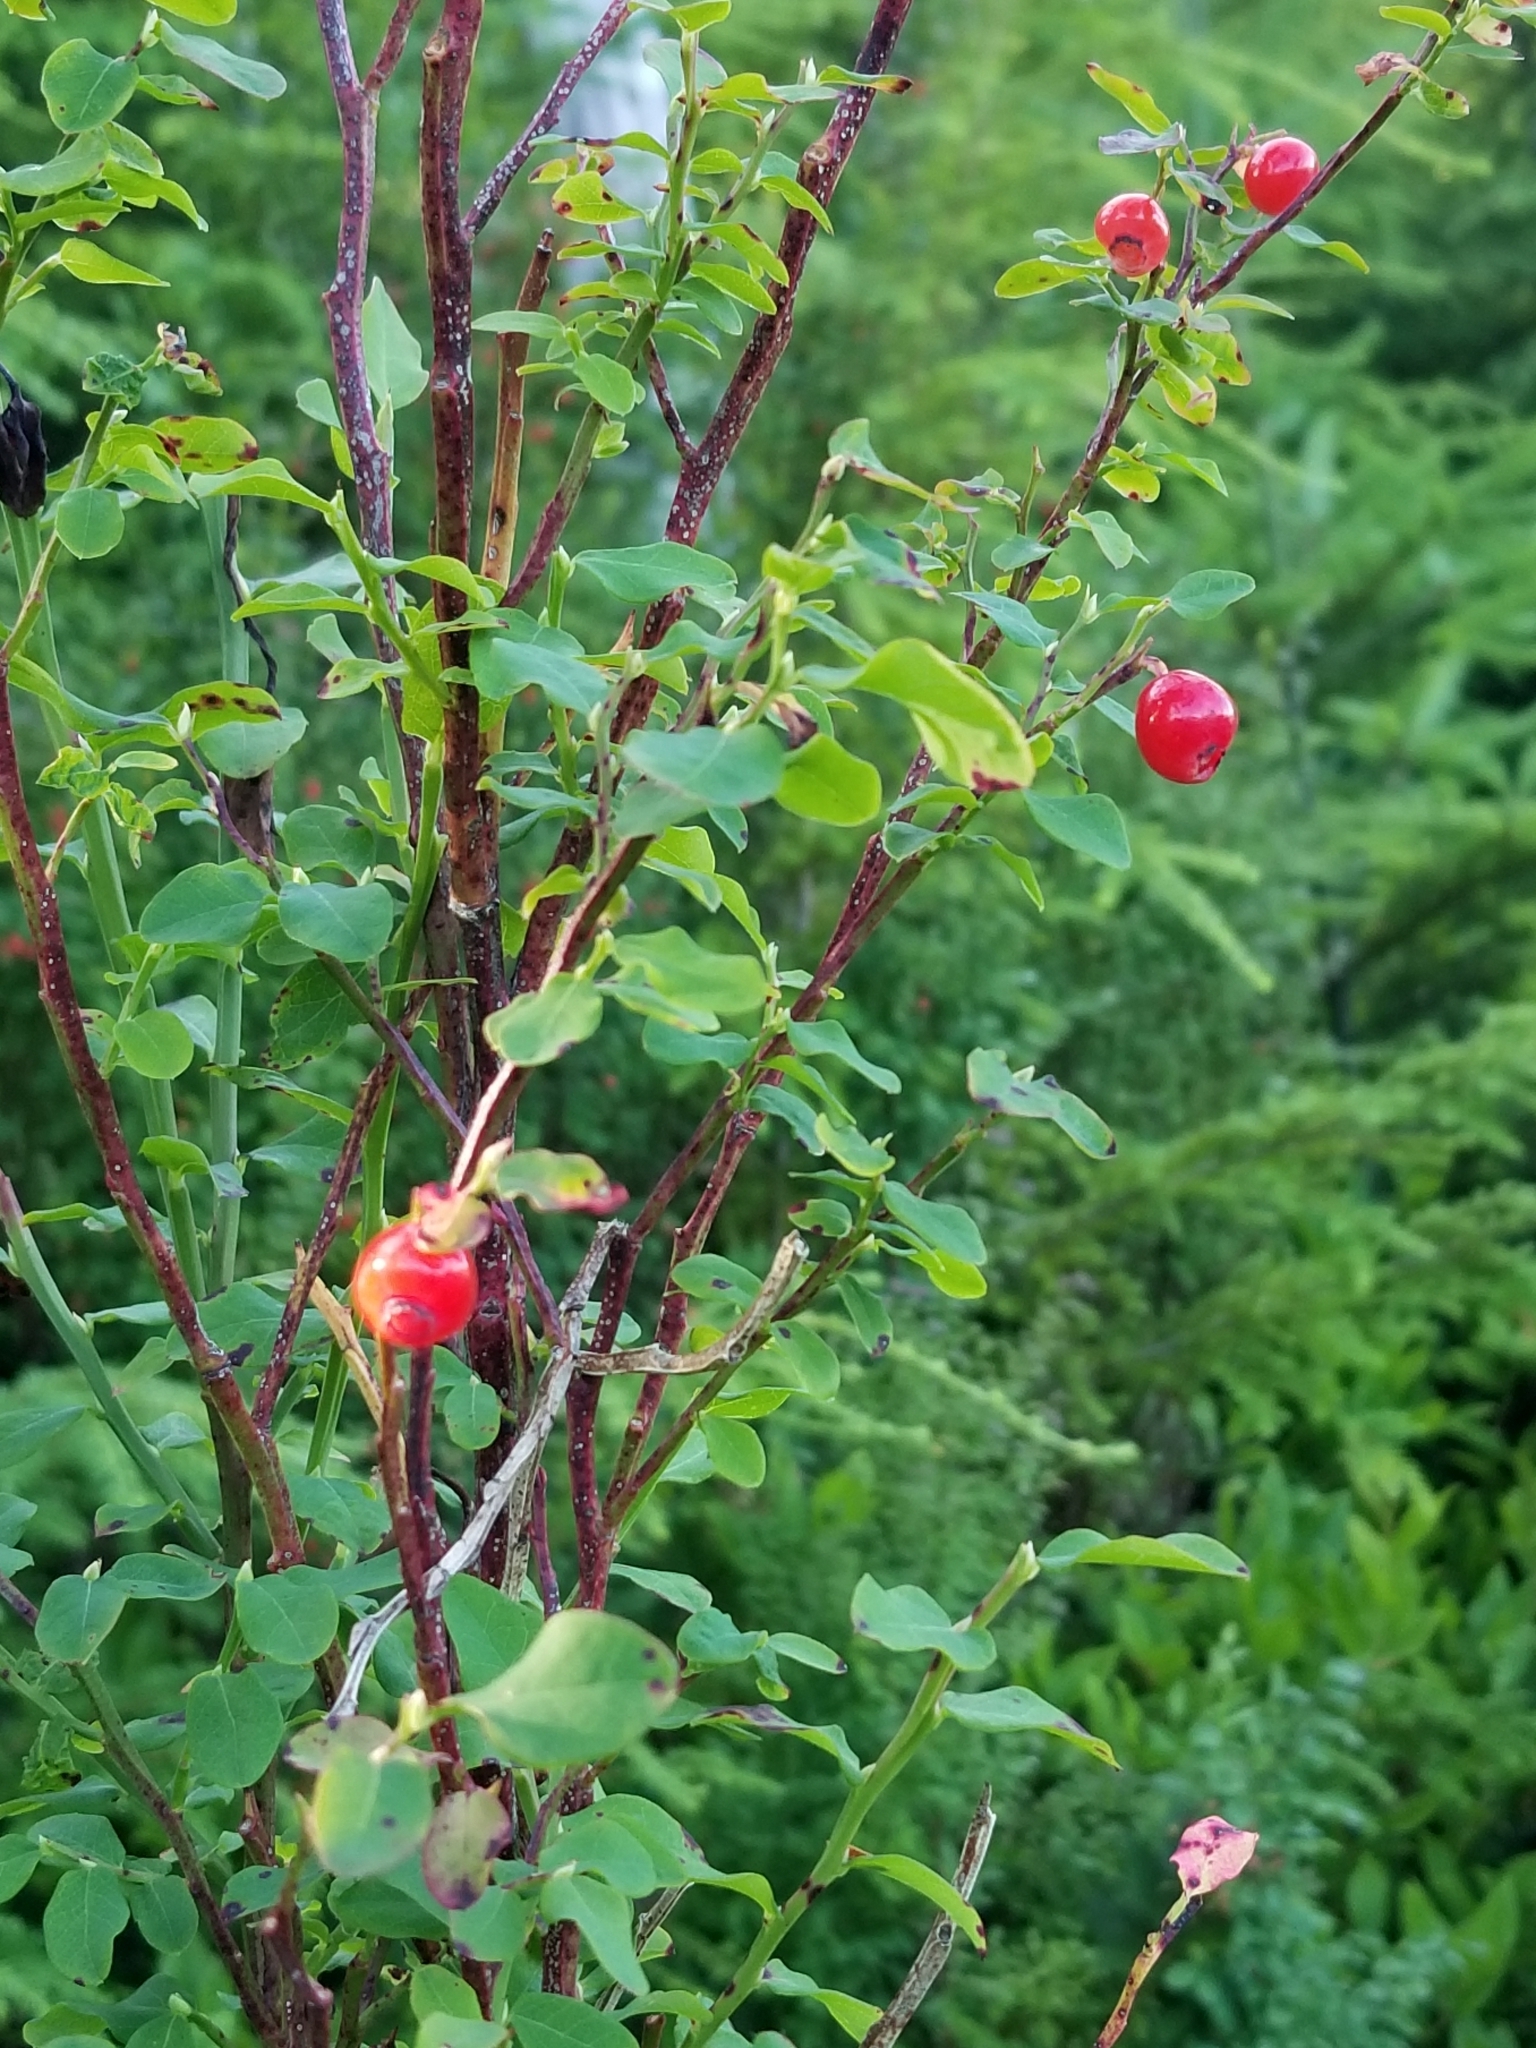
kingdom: Plantae
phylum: Tracheophyta
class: Magnoliopsida
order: Ericales
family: Ericaceae
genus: Vaccinium
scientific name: Vaccinium parvifolium
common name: Red-huckleberry
